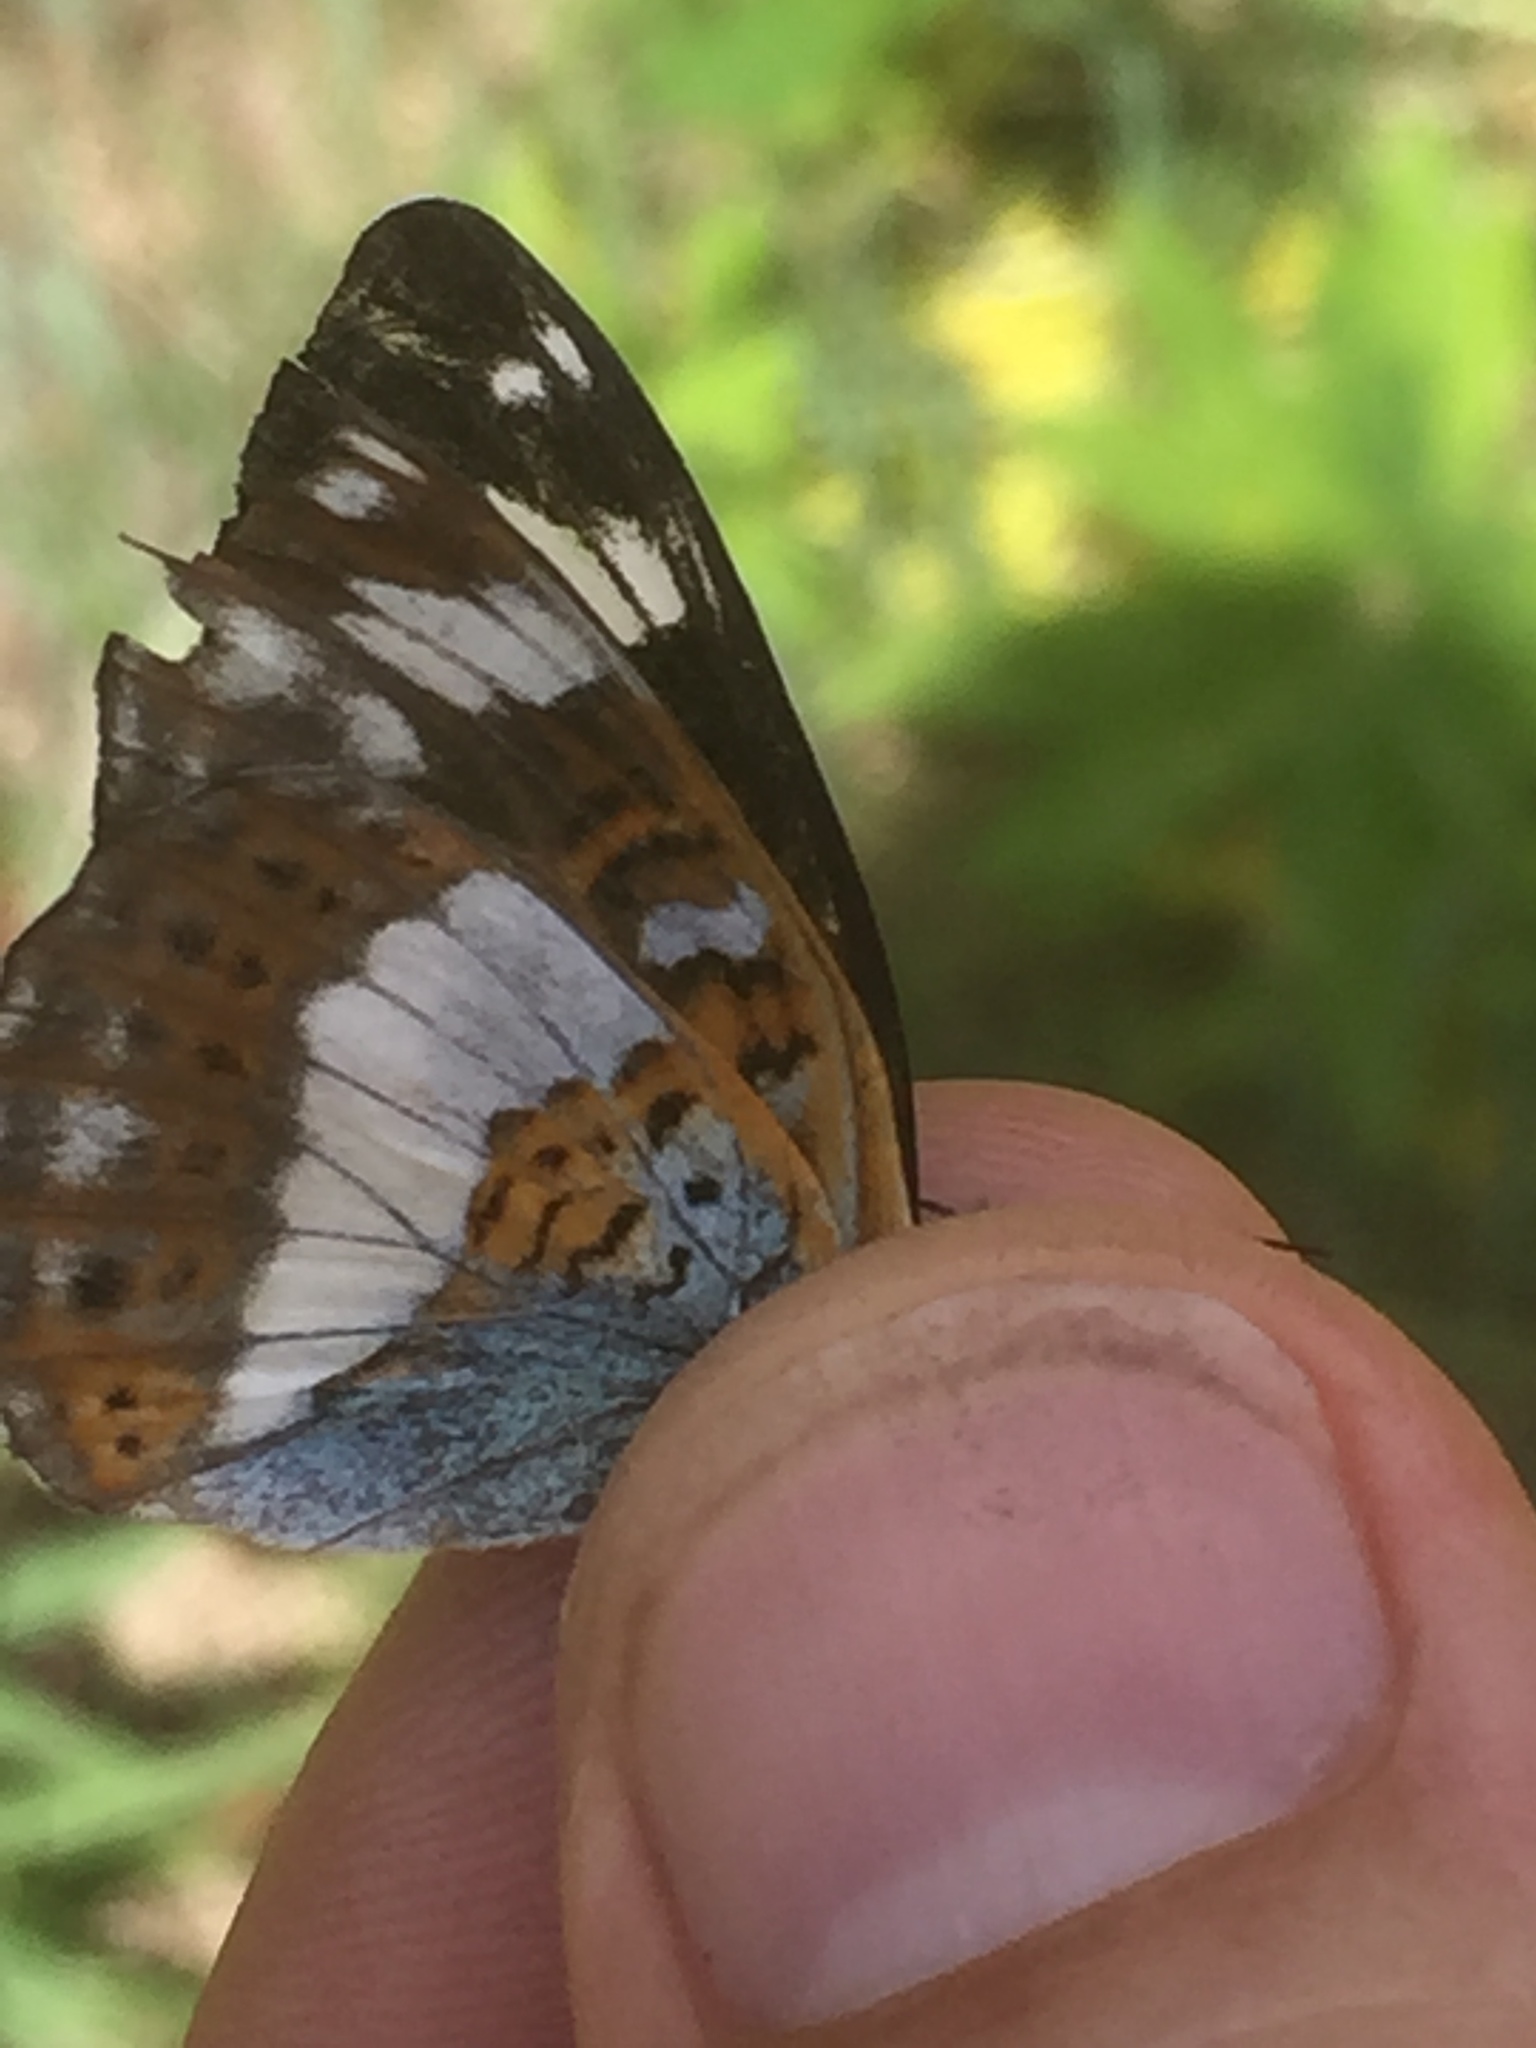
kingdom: Animalia
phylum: Arthropoda
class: Insecta
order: Lepidoptera
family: Nymphalidae
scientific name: Nymphalidae
